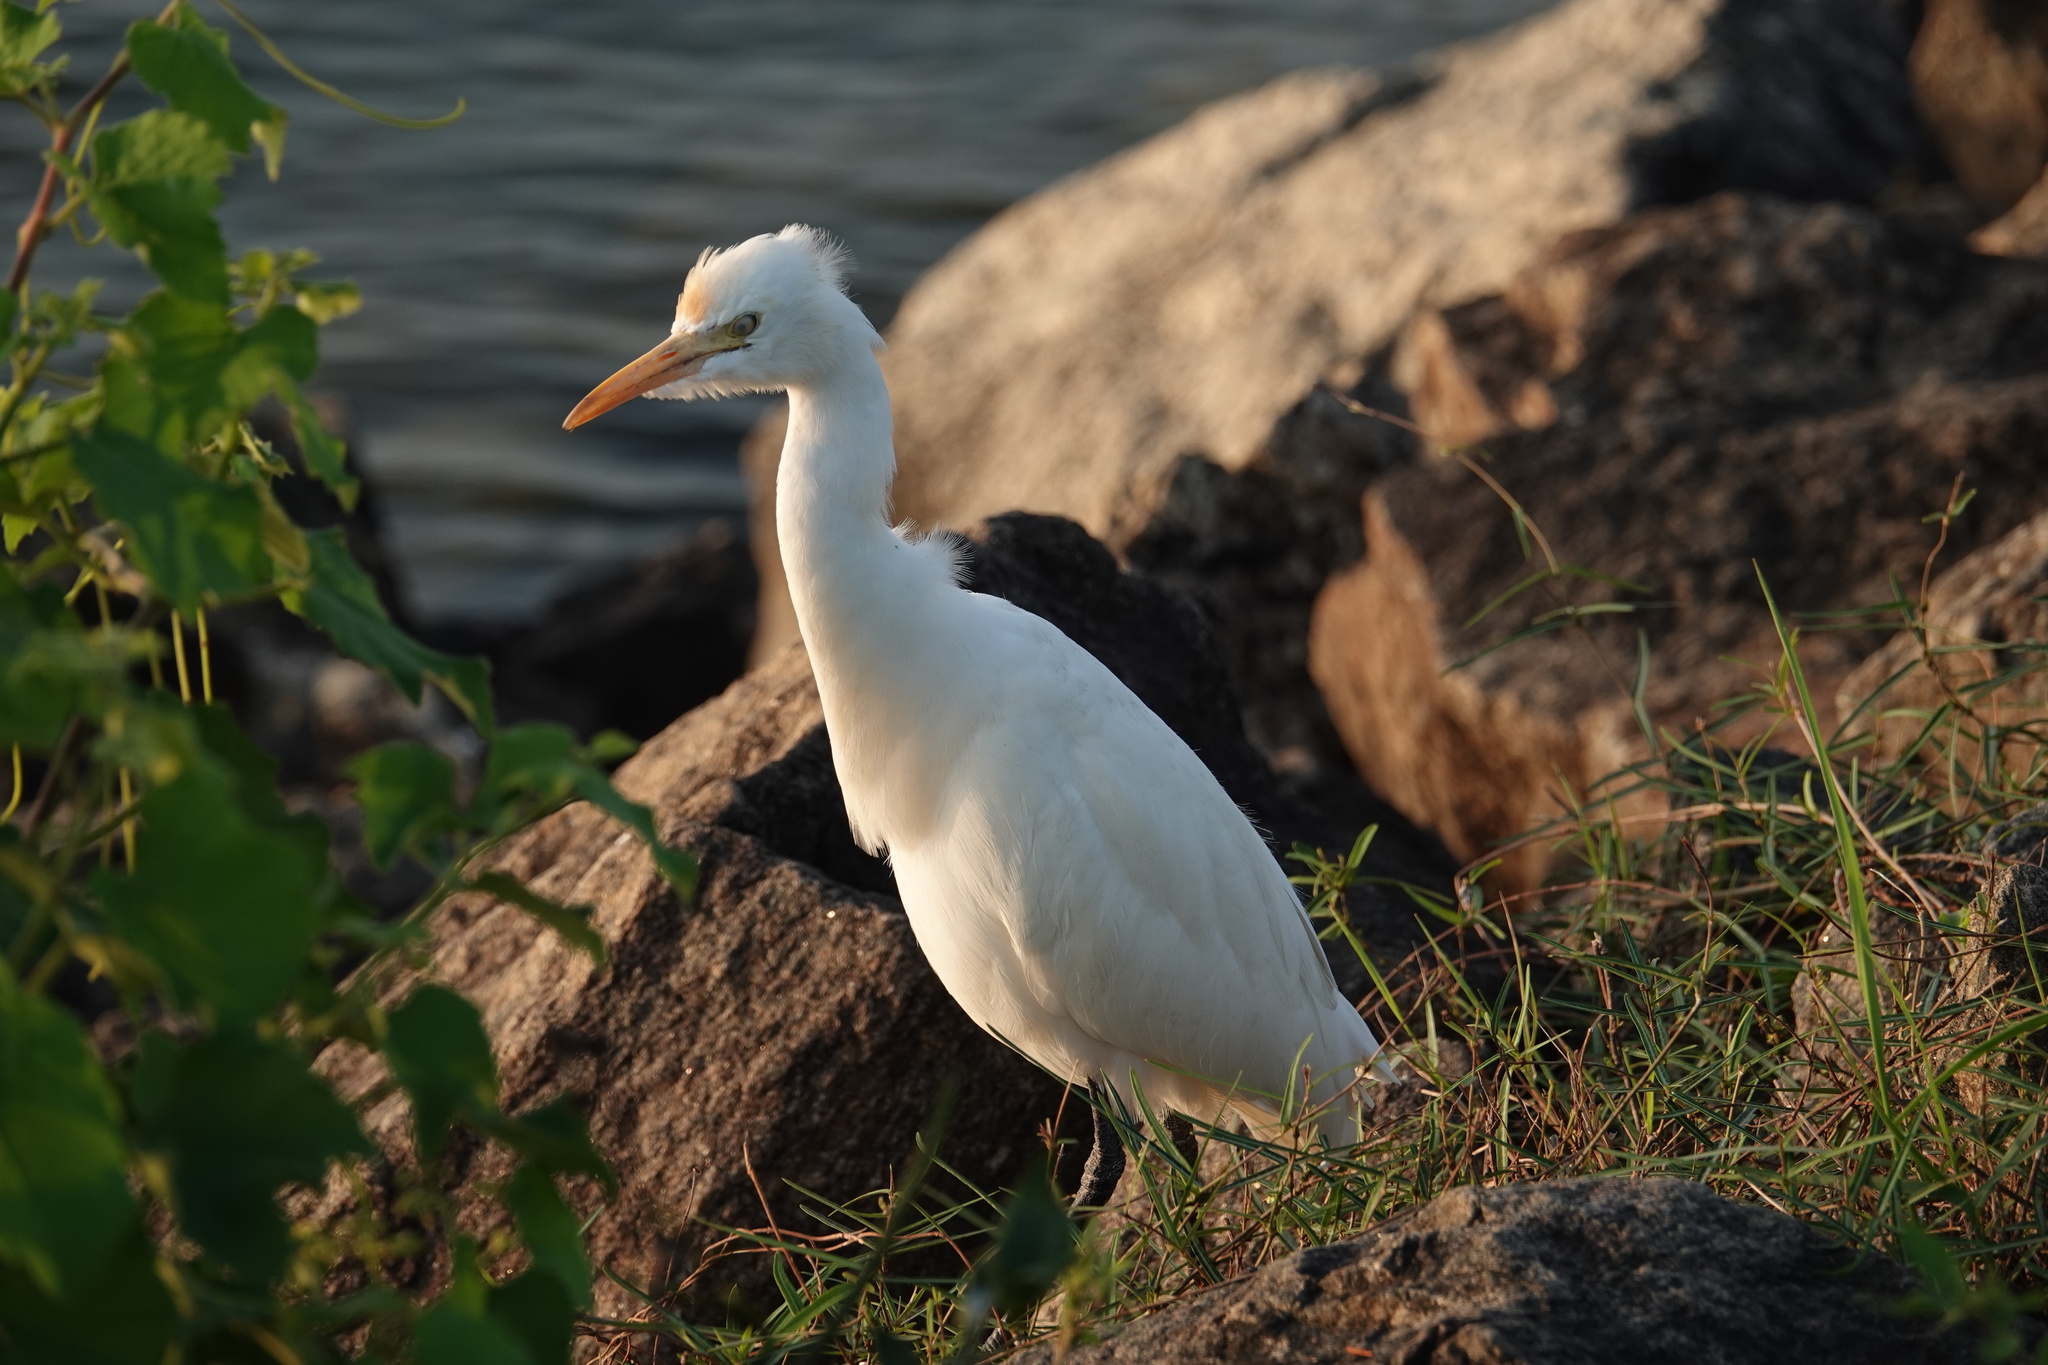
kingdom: Animalia
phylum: Chordata
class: Aves
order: Pelecaniformes
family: Ardeidae
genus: Bubulcus
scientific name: Bubulcus coromandus
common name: Eastern cattle egret
